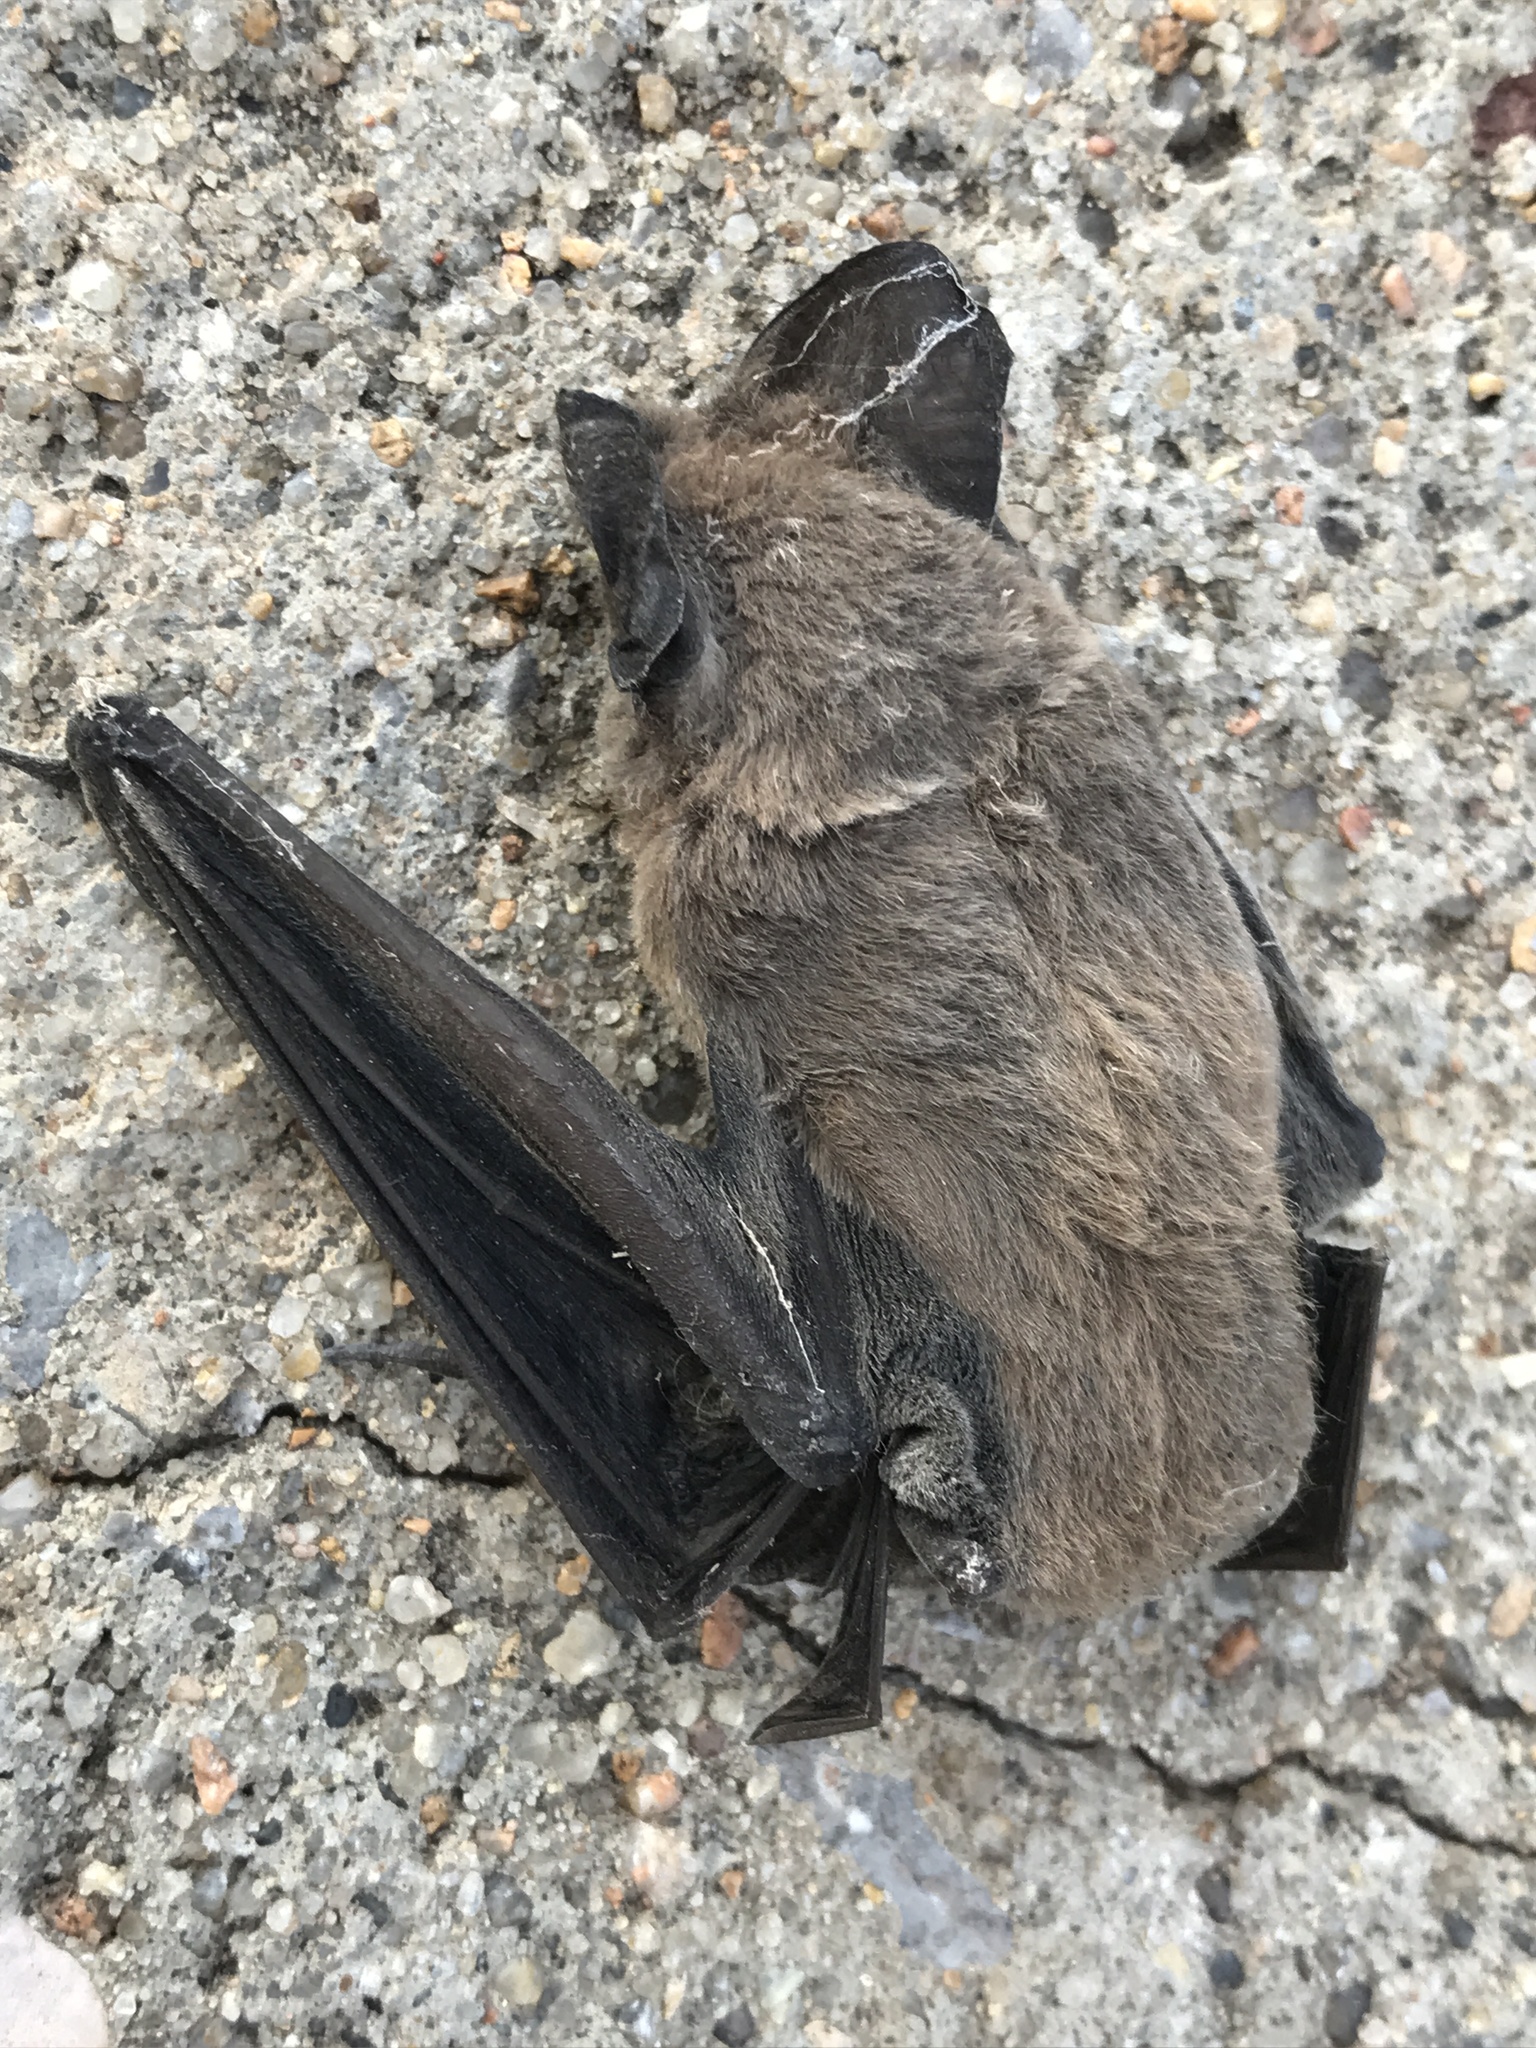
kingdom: Animalia
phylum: Chordata
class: Mammalia
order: Chiroptera
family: Molossidae
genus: Tadarida
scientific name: Tadarida brasiliensis
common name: Mexican free-tailed bat
